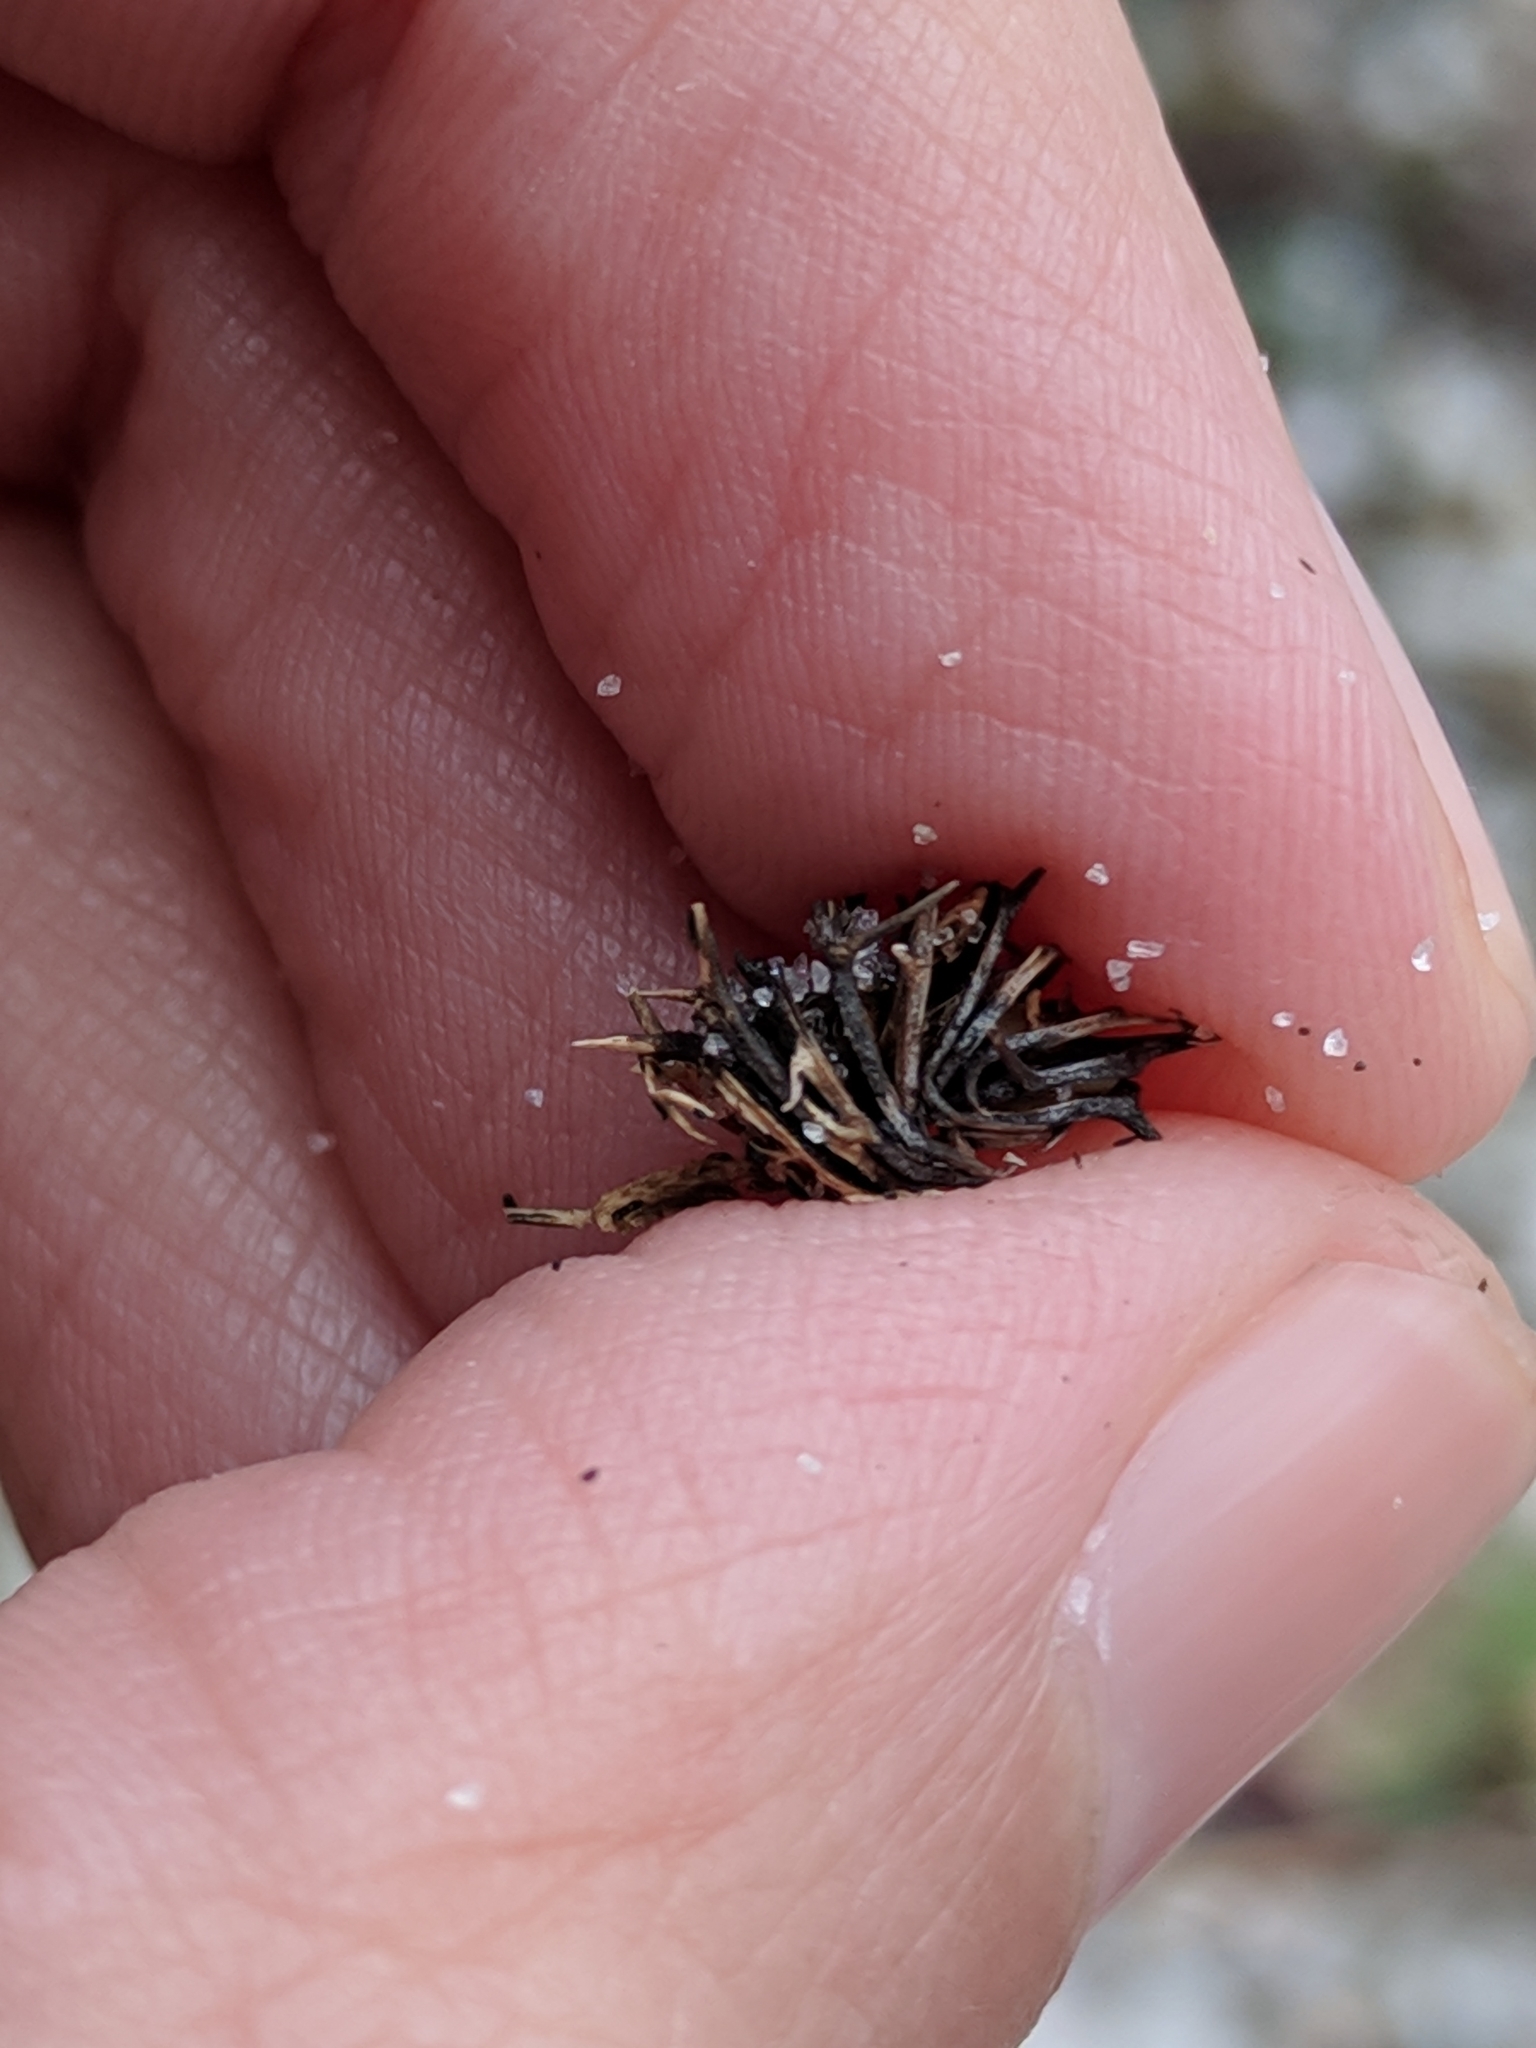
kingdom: Plantae
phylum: Tracheophyta
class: Magnoliopsida
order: Fabales
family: Fabaceae
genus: Medicago
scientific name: Medicago littoralis
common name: Shore medick
